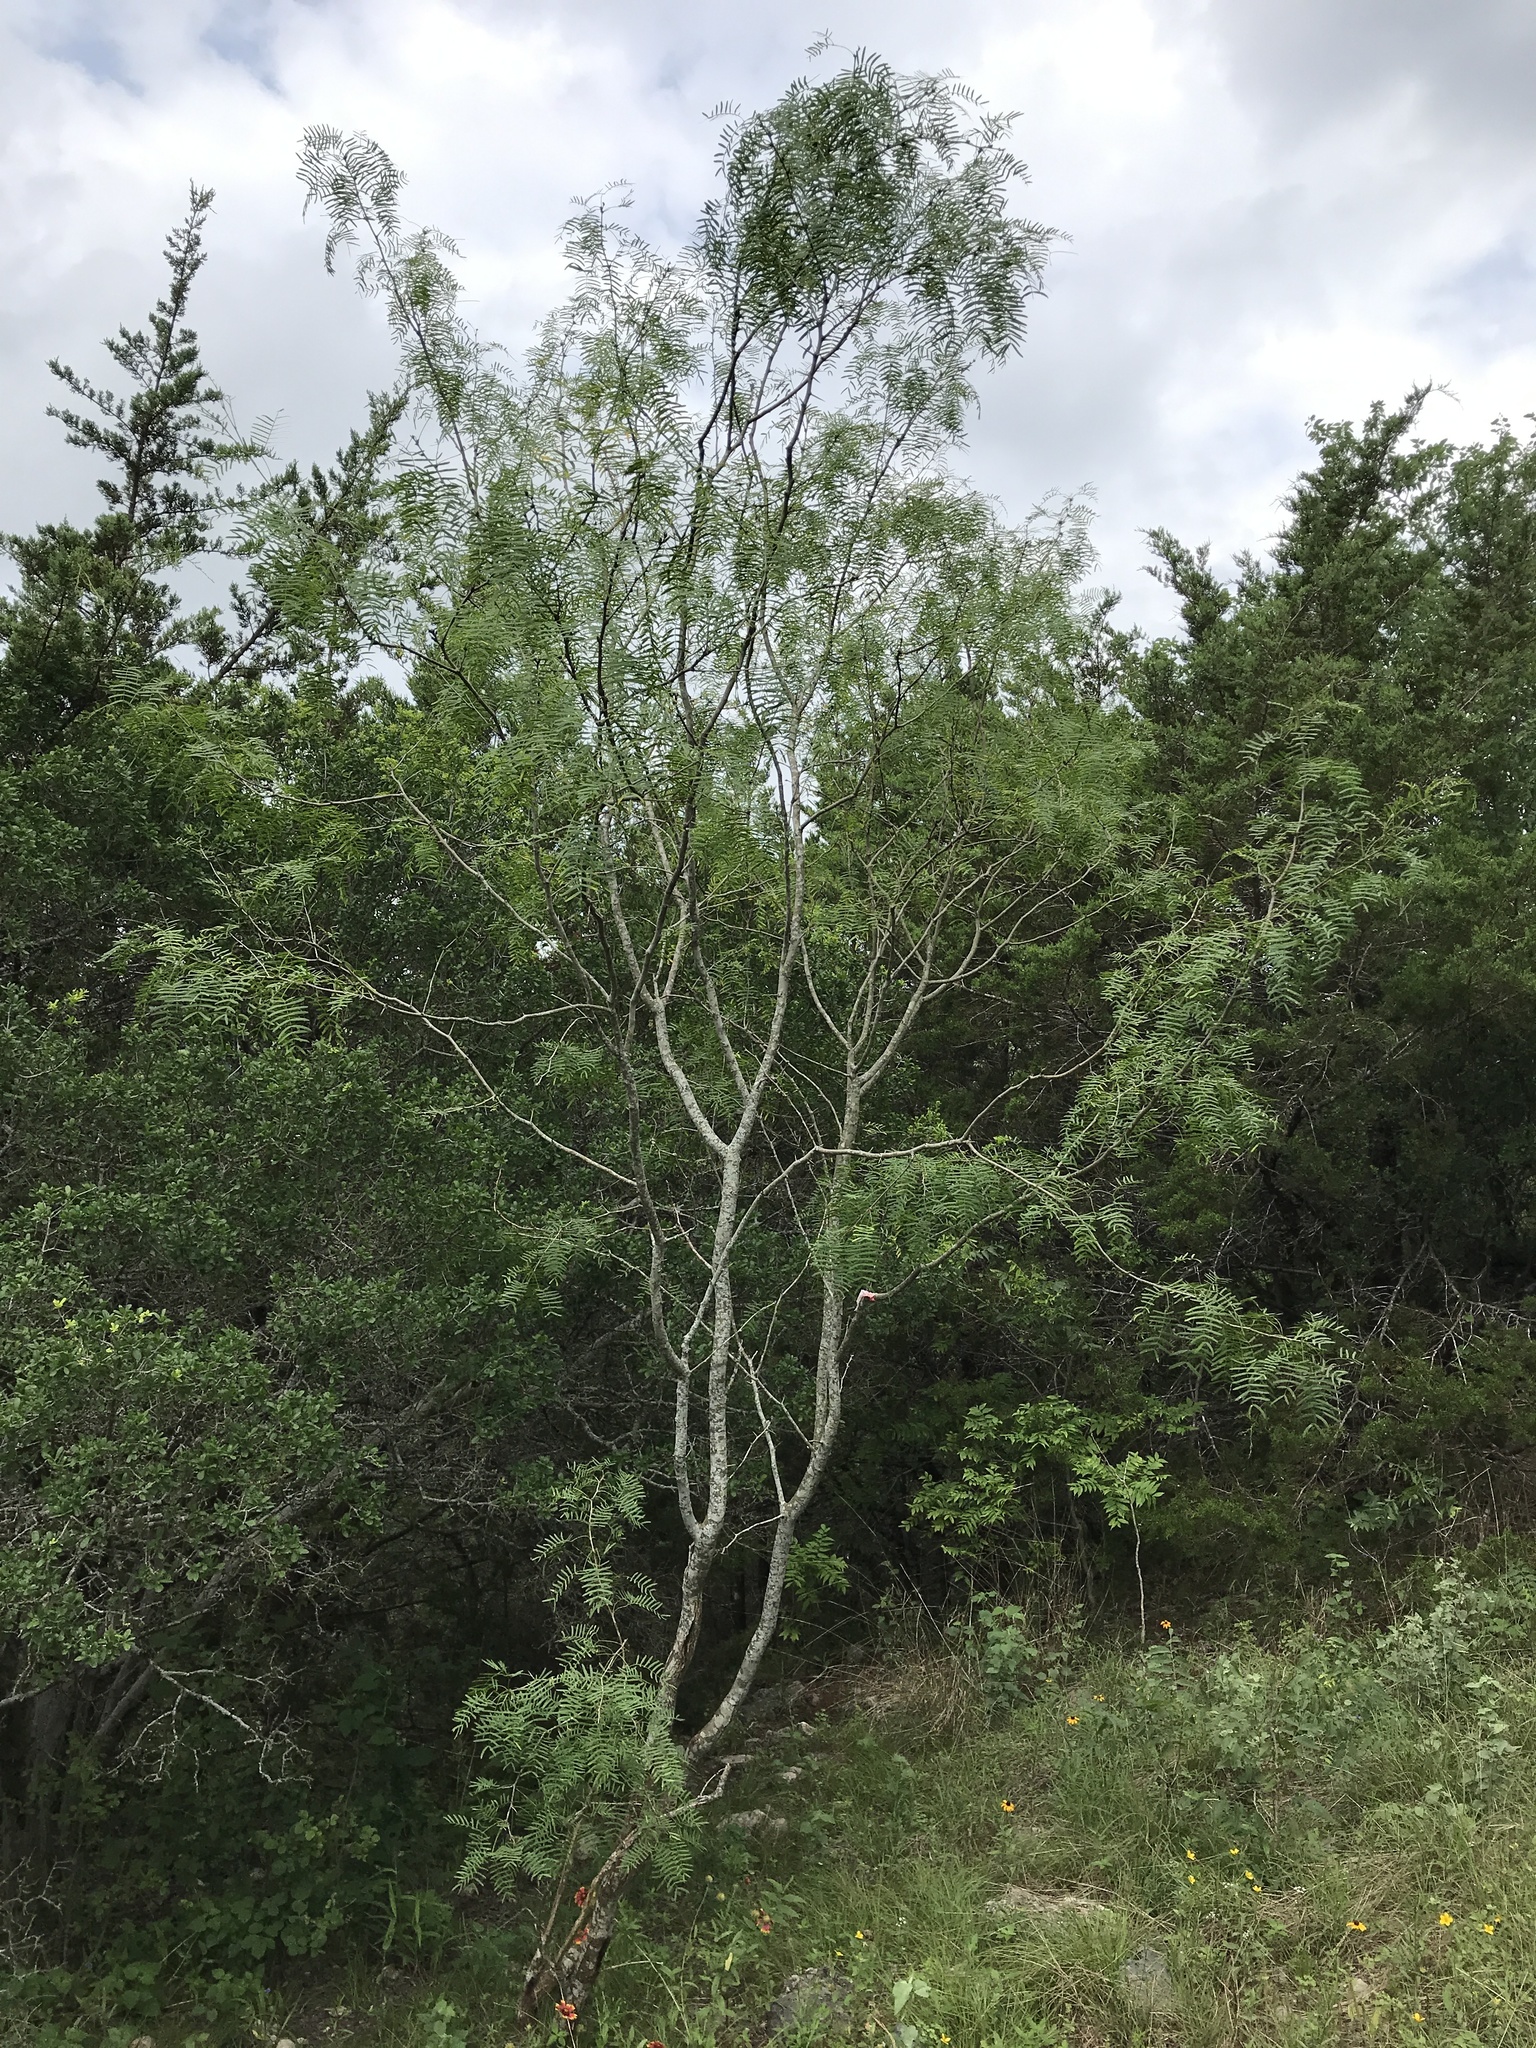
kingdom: Plantae
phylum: Tracheophyta
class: Magnoliopsida
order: Fabales
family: Fabaceae
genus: Prosopis
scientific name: Prosopis glandulosa
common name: Honey mesquite
